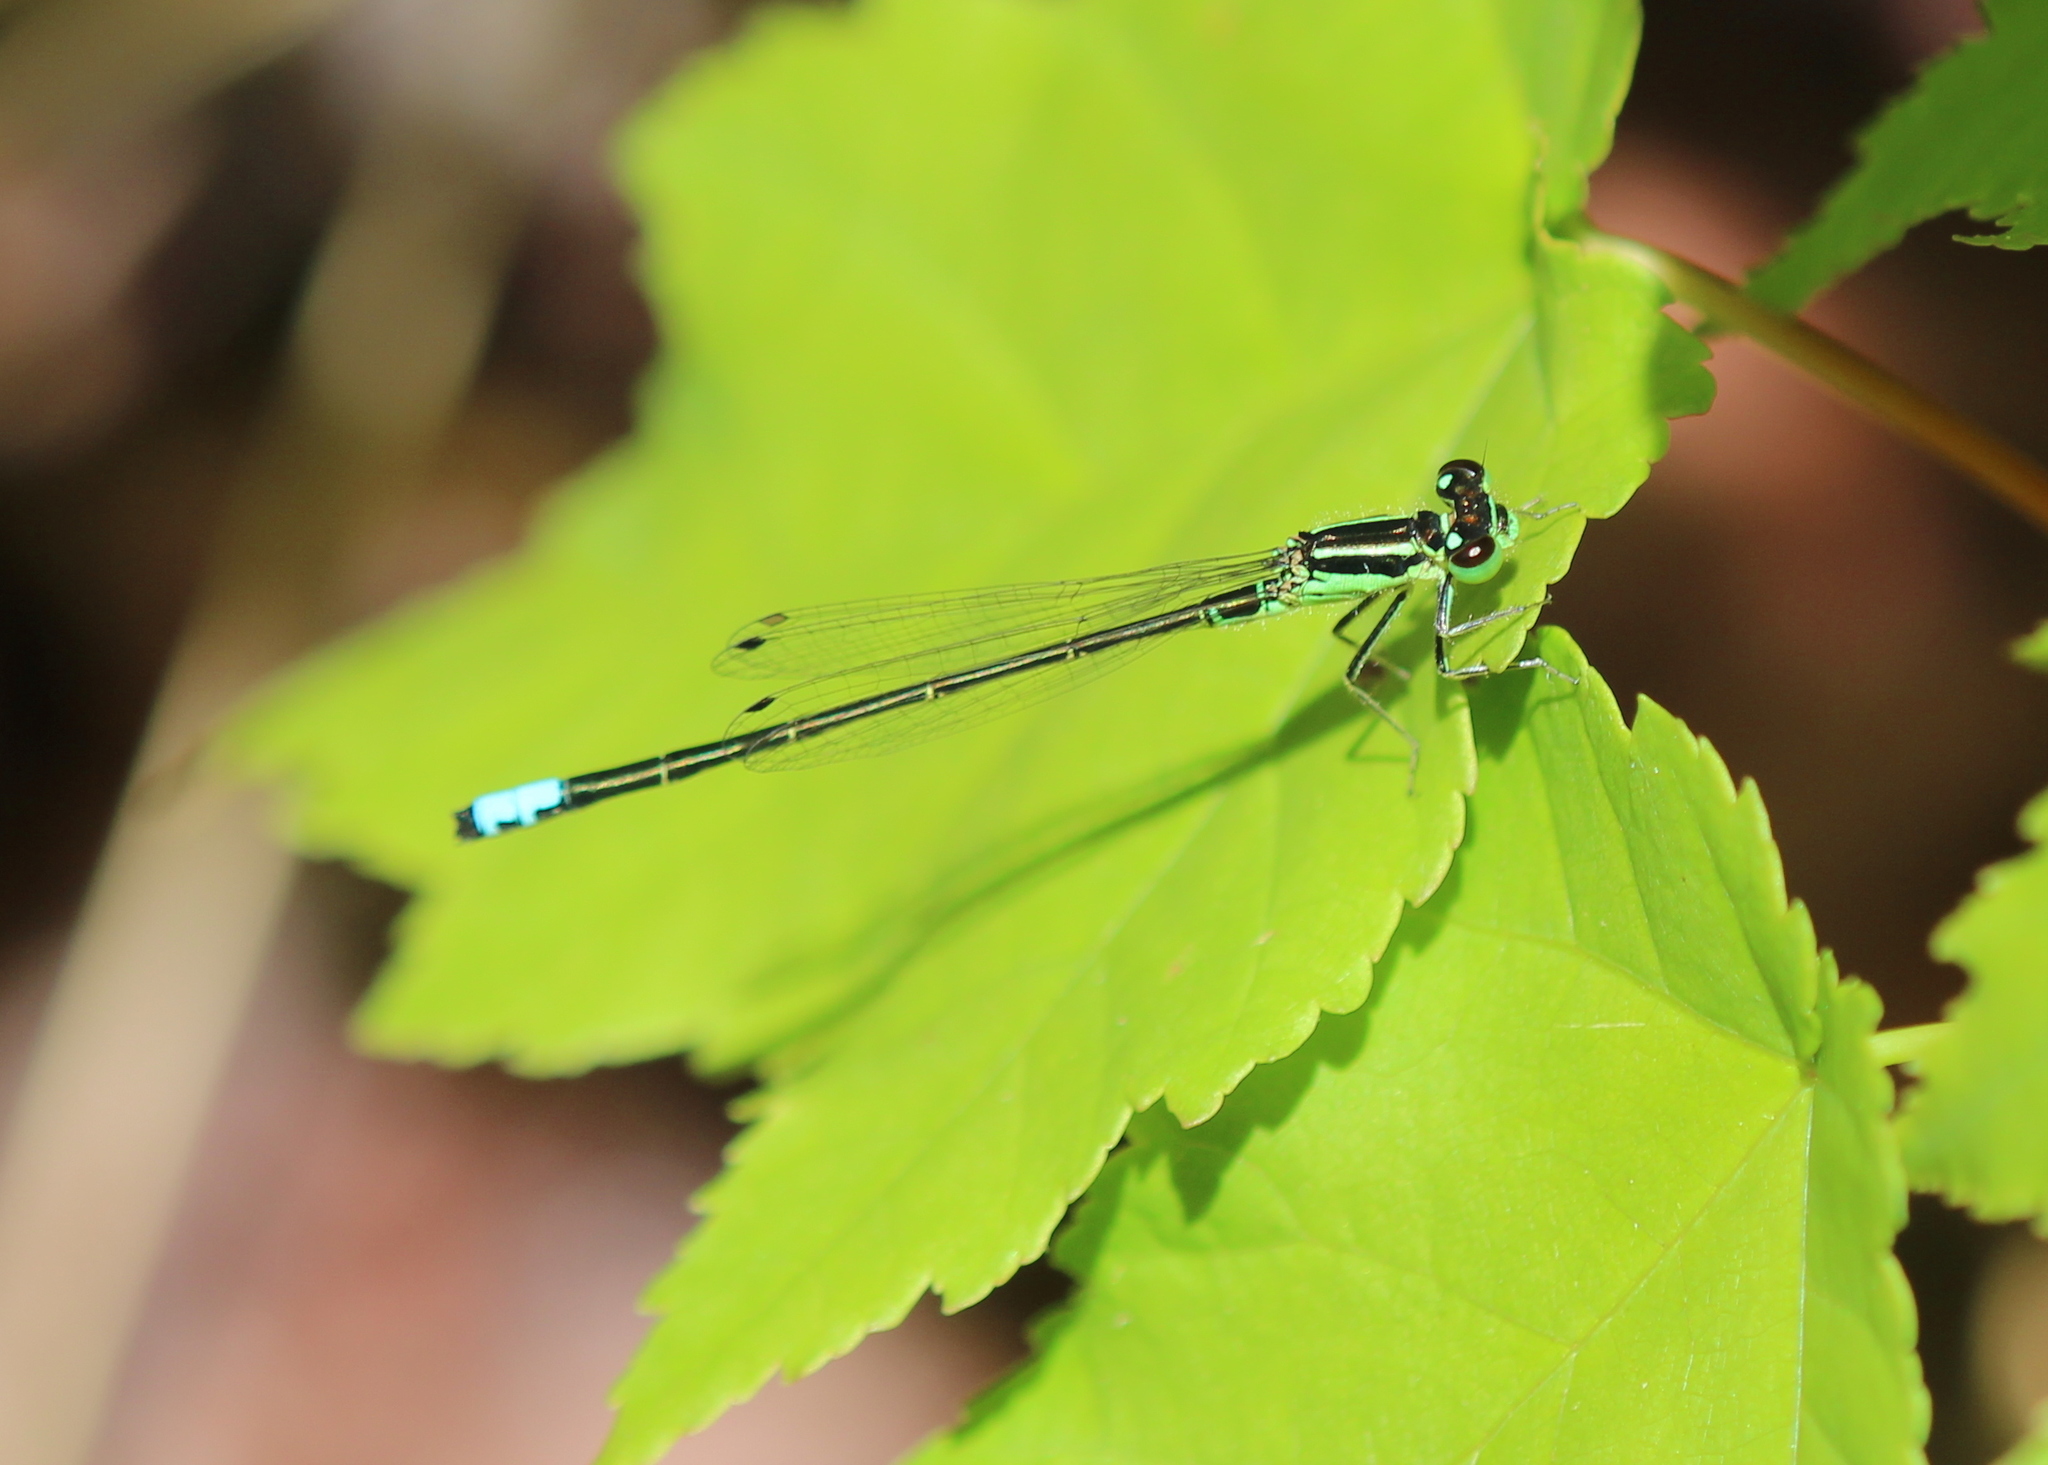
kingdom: Animalia
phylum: Arthropoda
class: Insecta
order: Odonata
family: Coenagrionidae
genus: Ischnura
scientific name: Ischnura verticalis
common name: Eastern forktail
